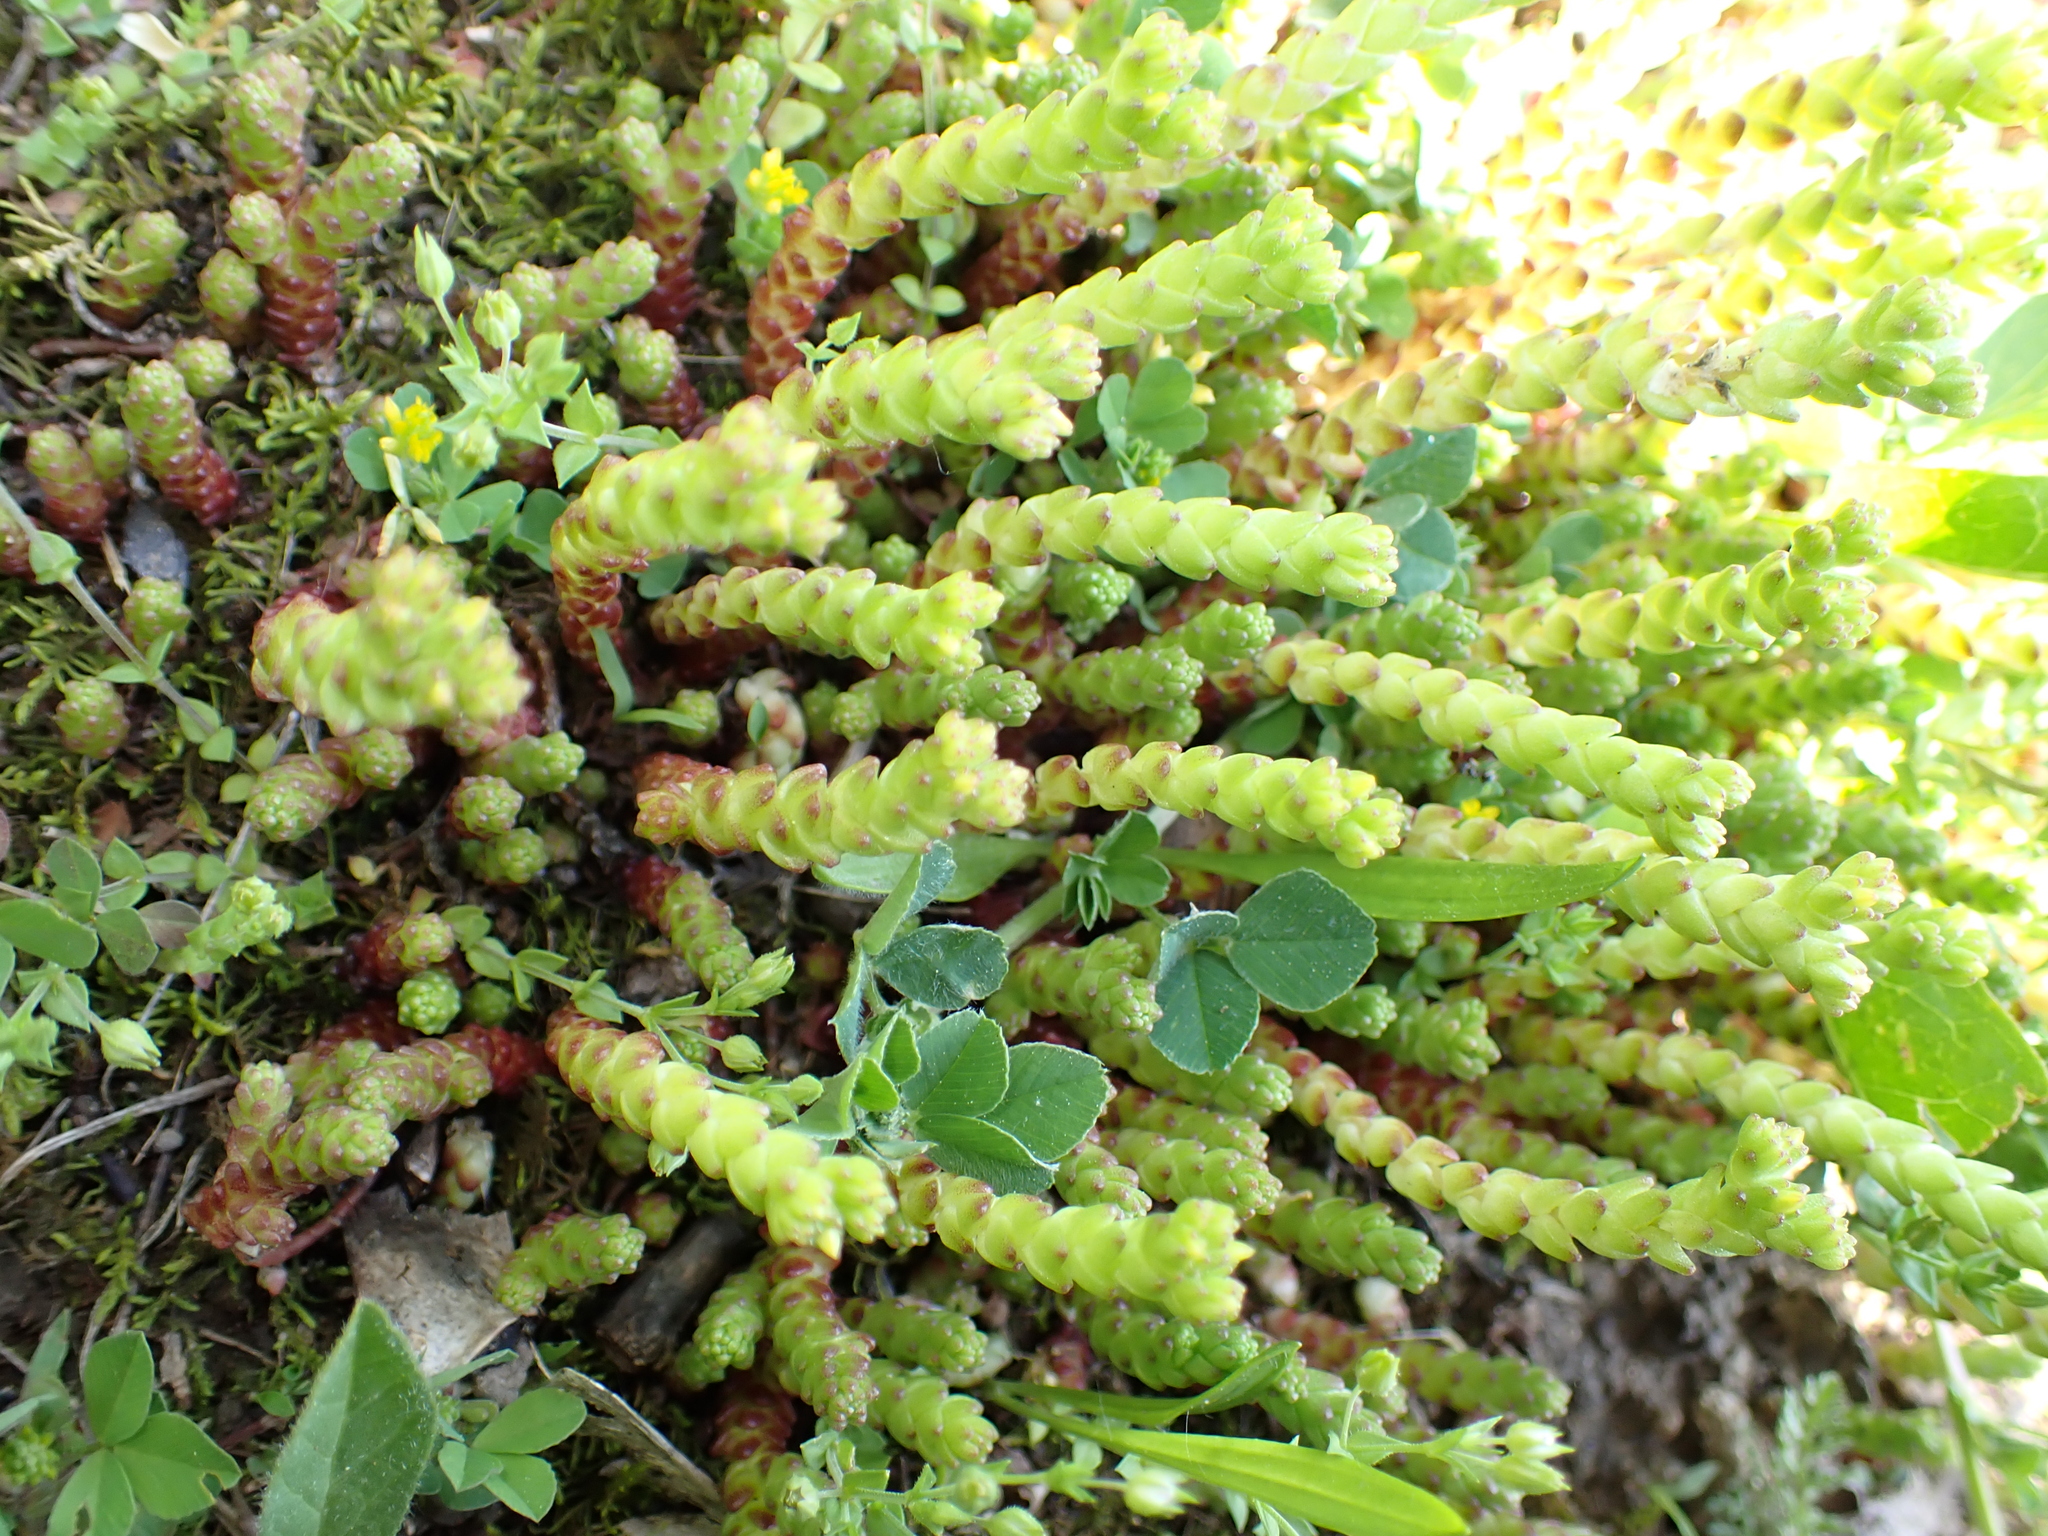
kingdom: Plantae
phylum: Tracheophyta
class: Magnoliopsida
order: Saxifragales
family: Crassulaceae
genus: Sedum
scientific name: Sedum acre
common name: Biting stonecrop
